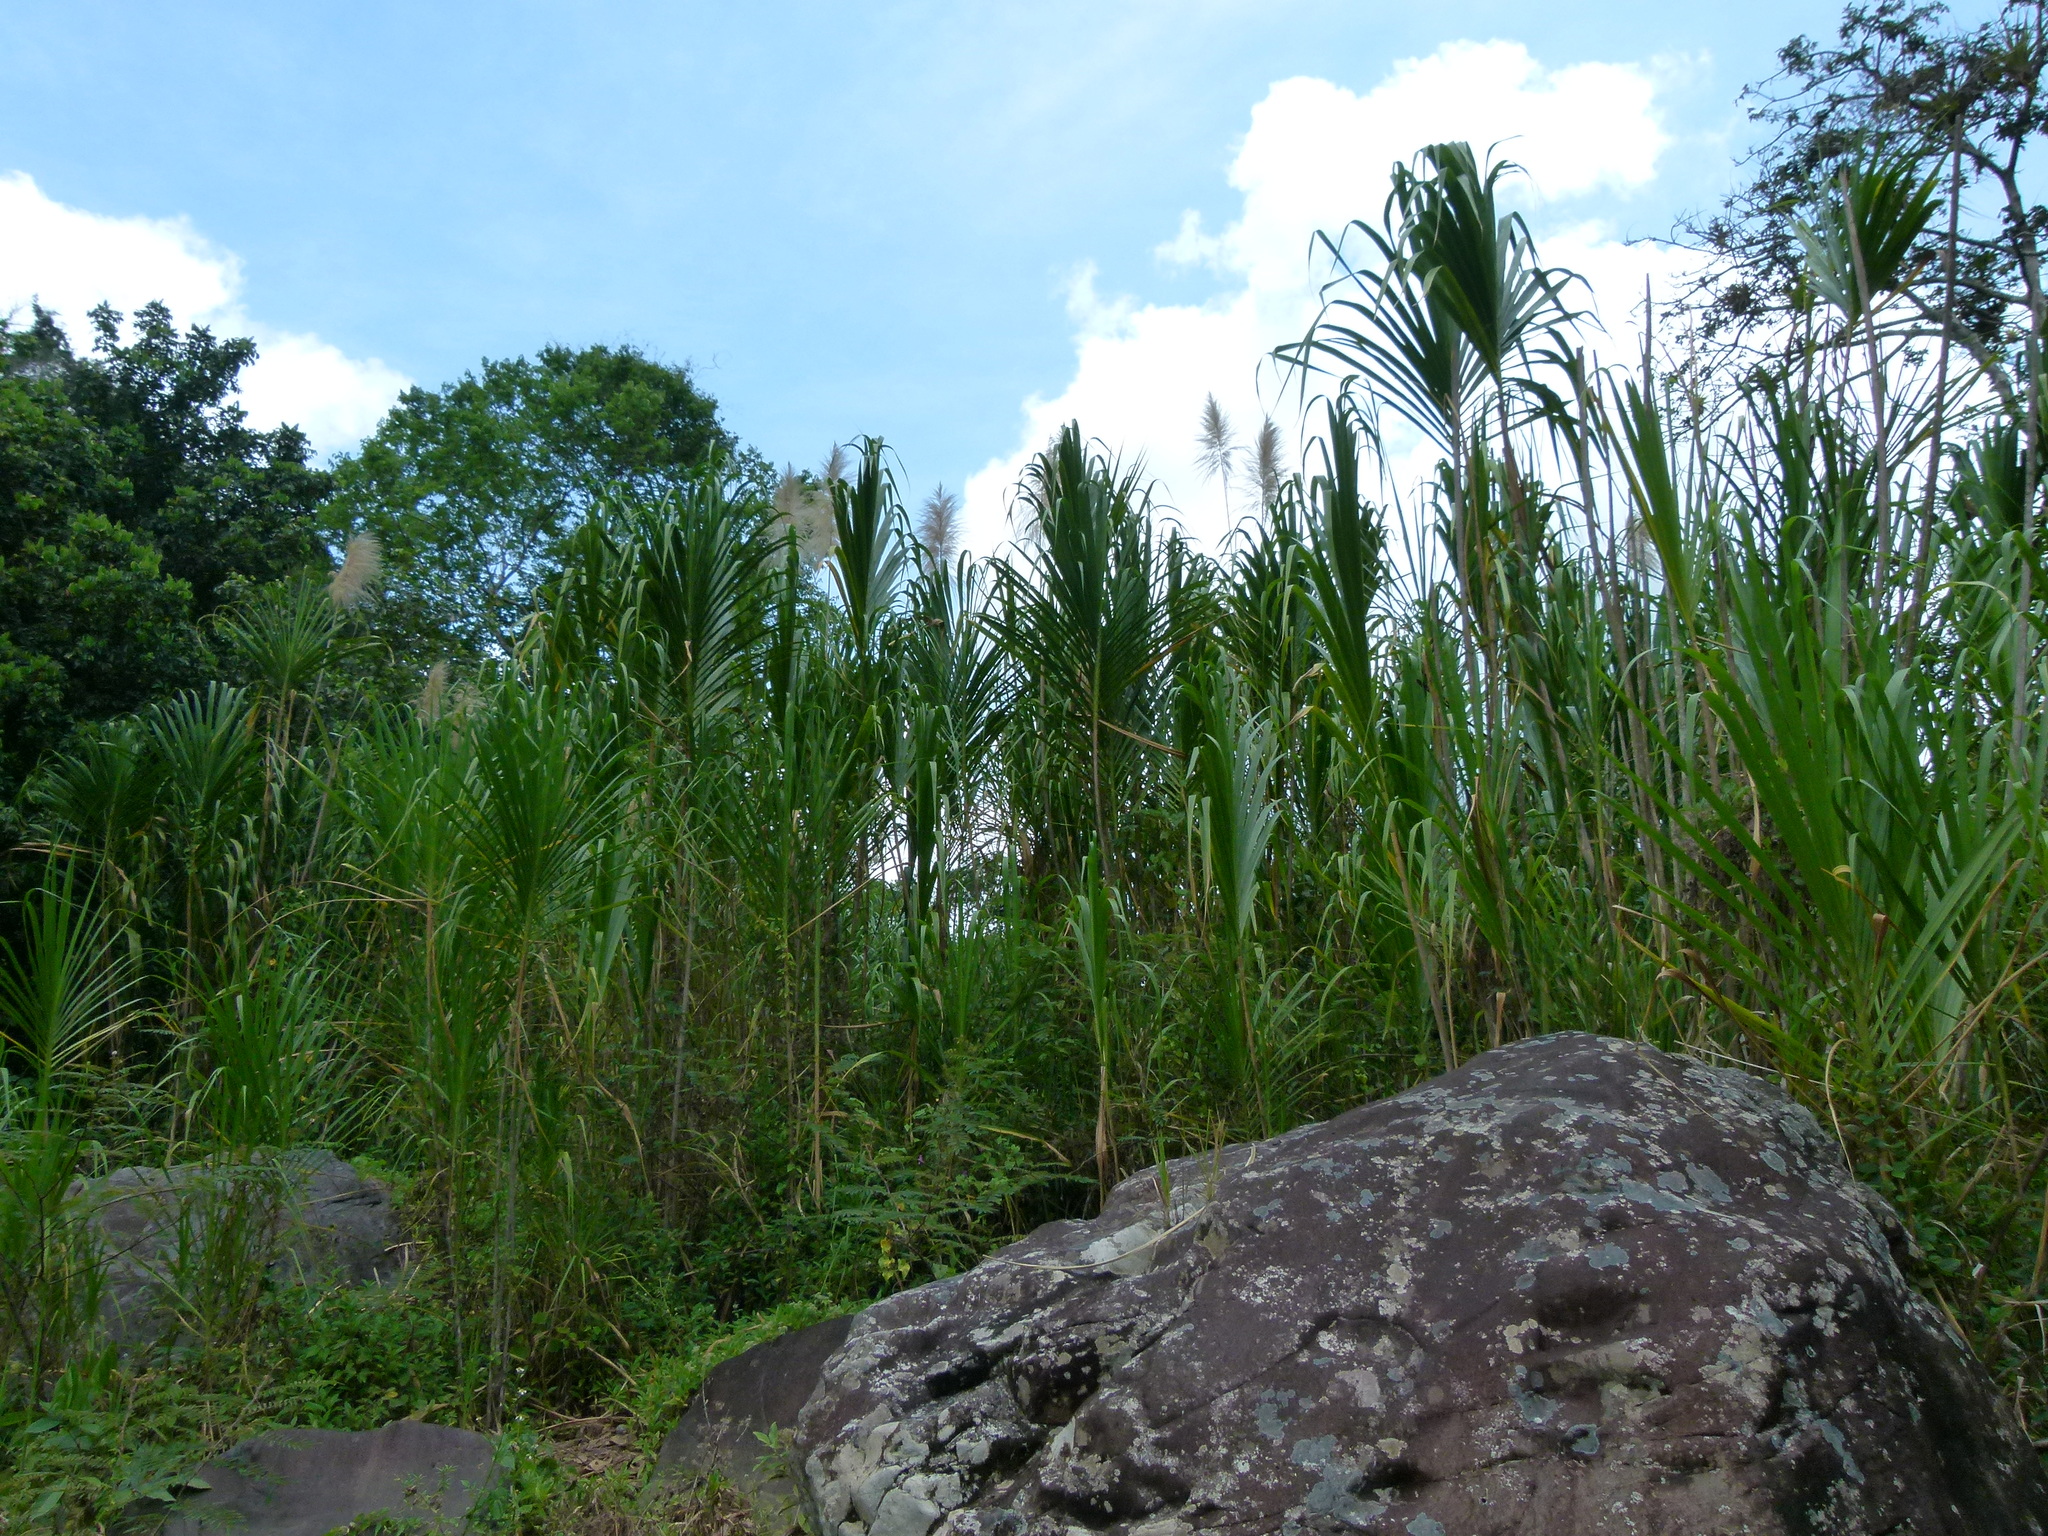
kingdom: Plantae
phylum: Tracheophyta
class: Liliopsida
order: Poales
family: Poaceae
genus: Gynerium
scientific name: Gynerium sagittatum
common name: Wild cane
